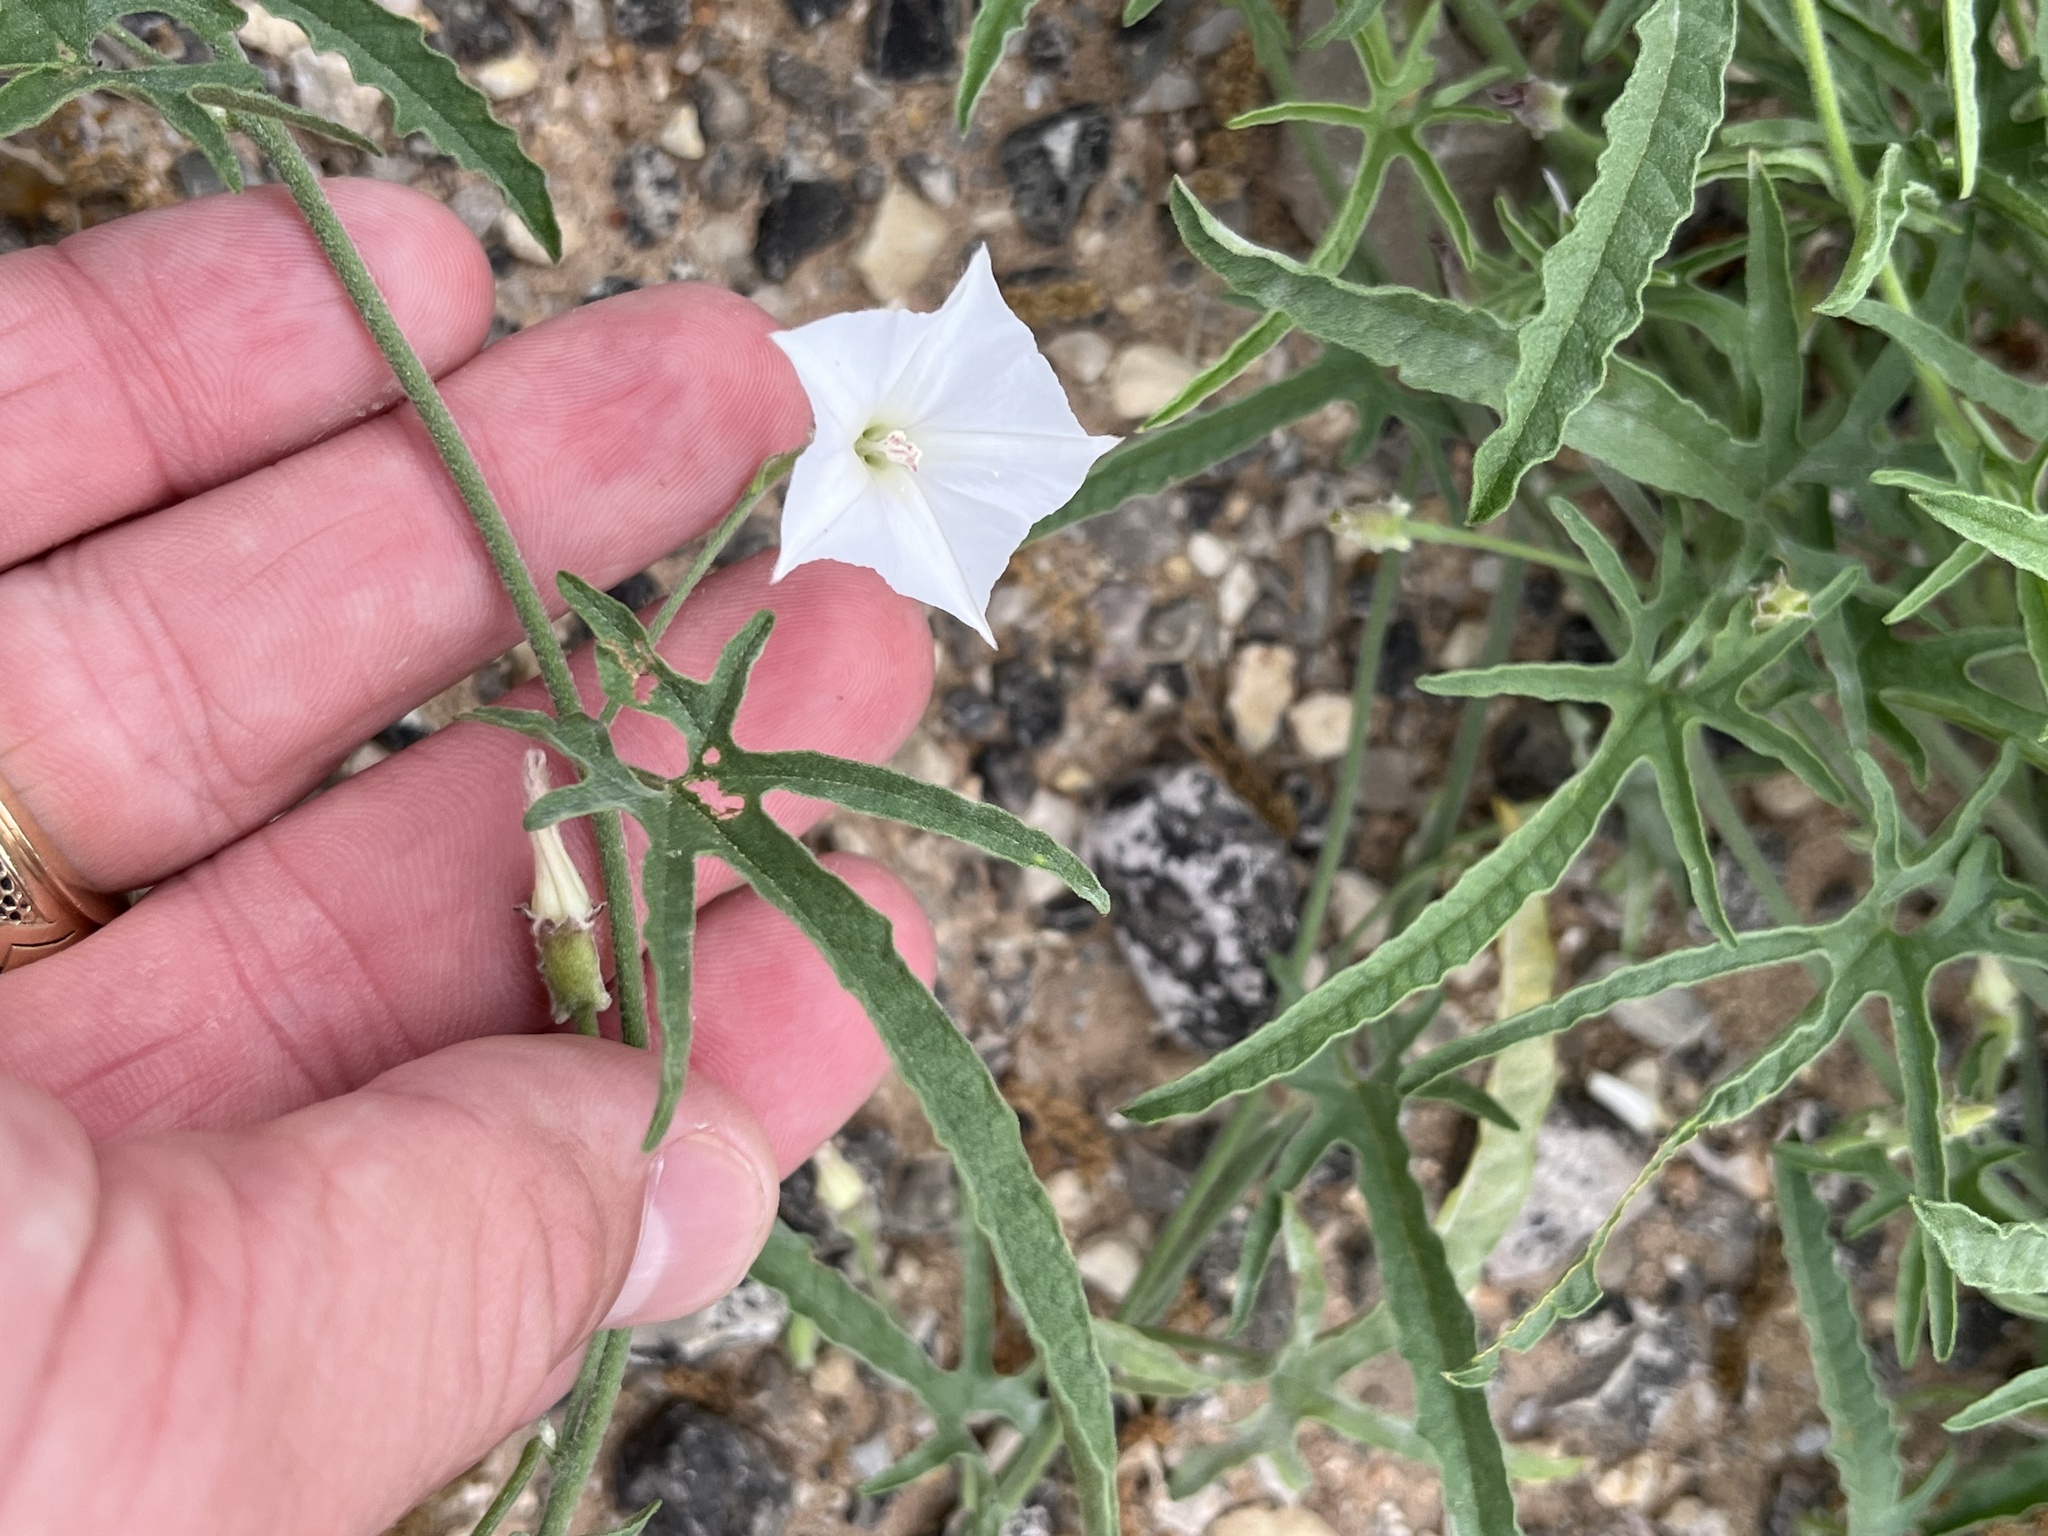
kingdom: Plantae
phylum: Tracheophyta
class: Magnoliopsida
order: Solanales
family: Convolvulaceae
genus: Convolvulus
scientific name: Convolvulus equitans
